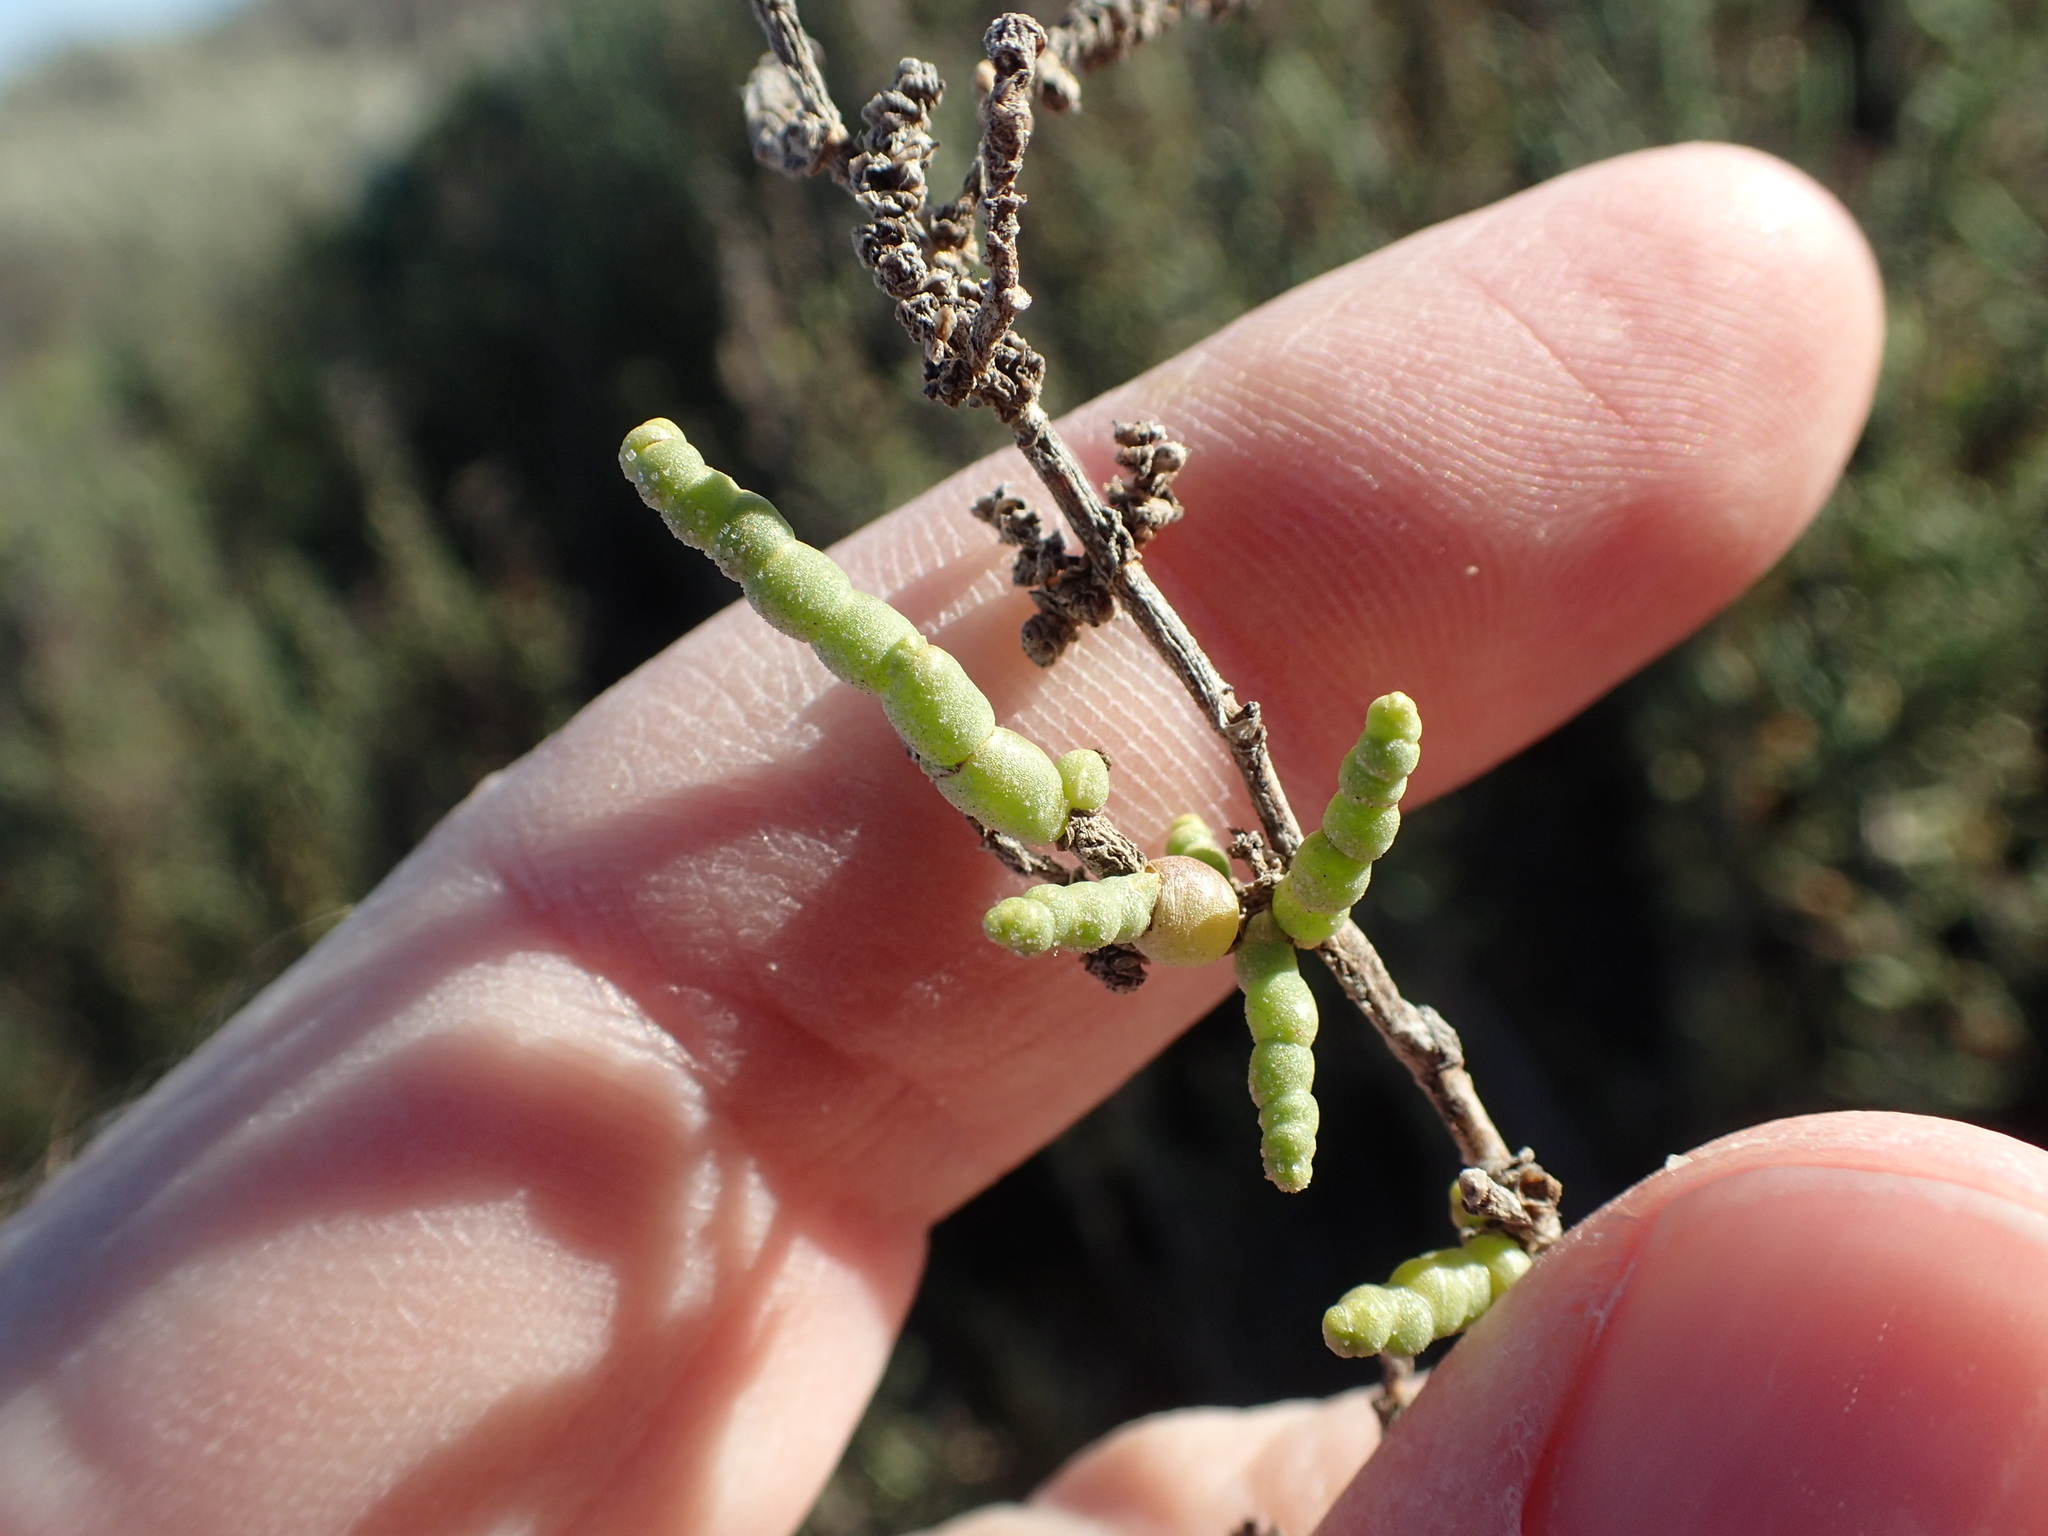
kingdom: Plantae
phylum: Tracheophyta
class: Magnoliopsida
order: Caryophyllales
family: Amaranthaceae
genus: Allenrolfea
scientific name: Allenrolfea occidentalis
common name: Iodine-bush
